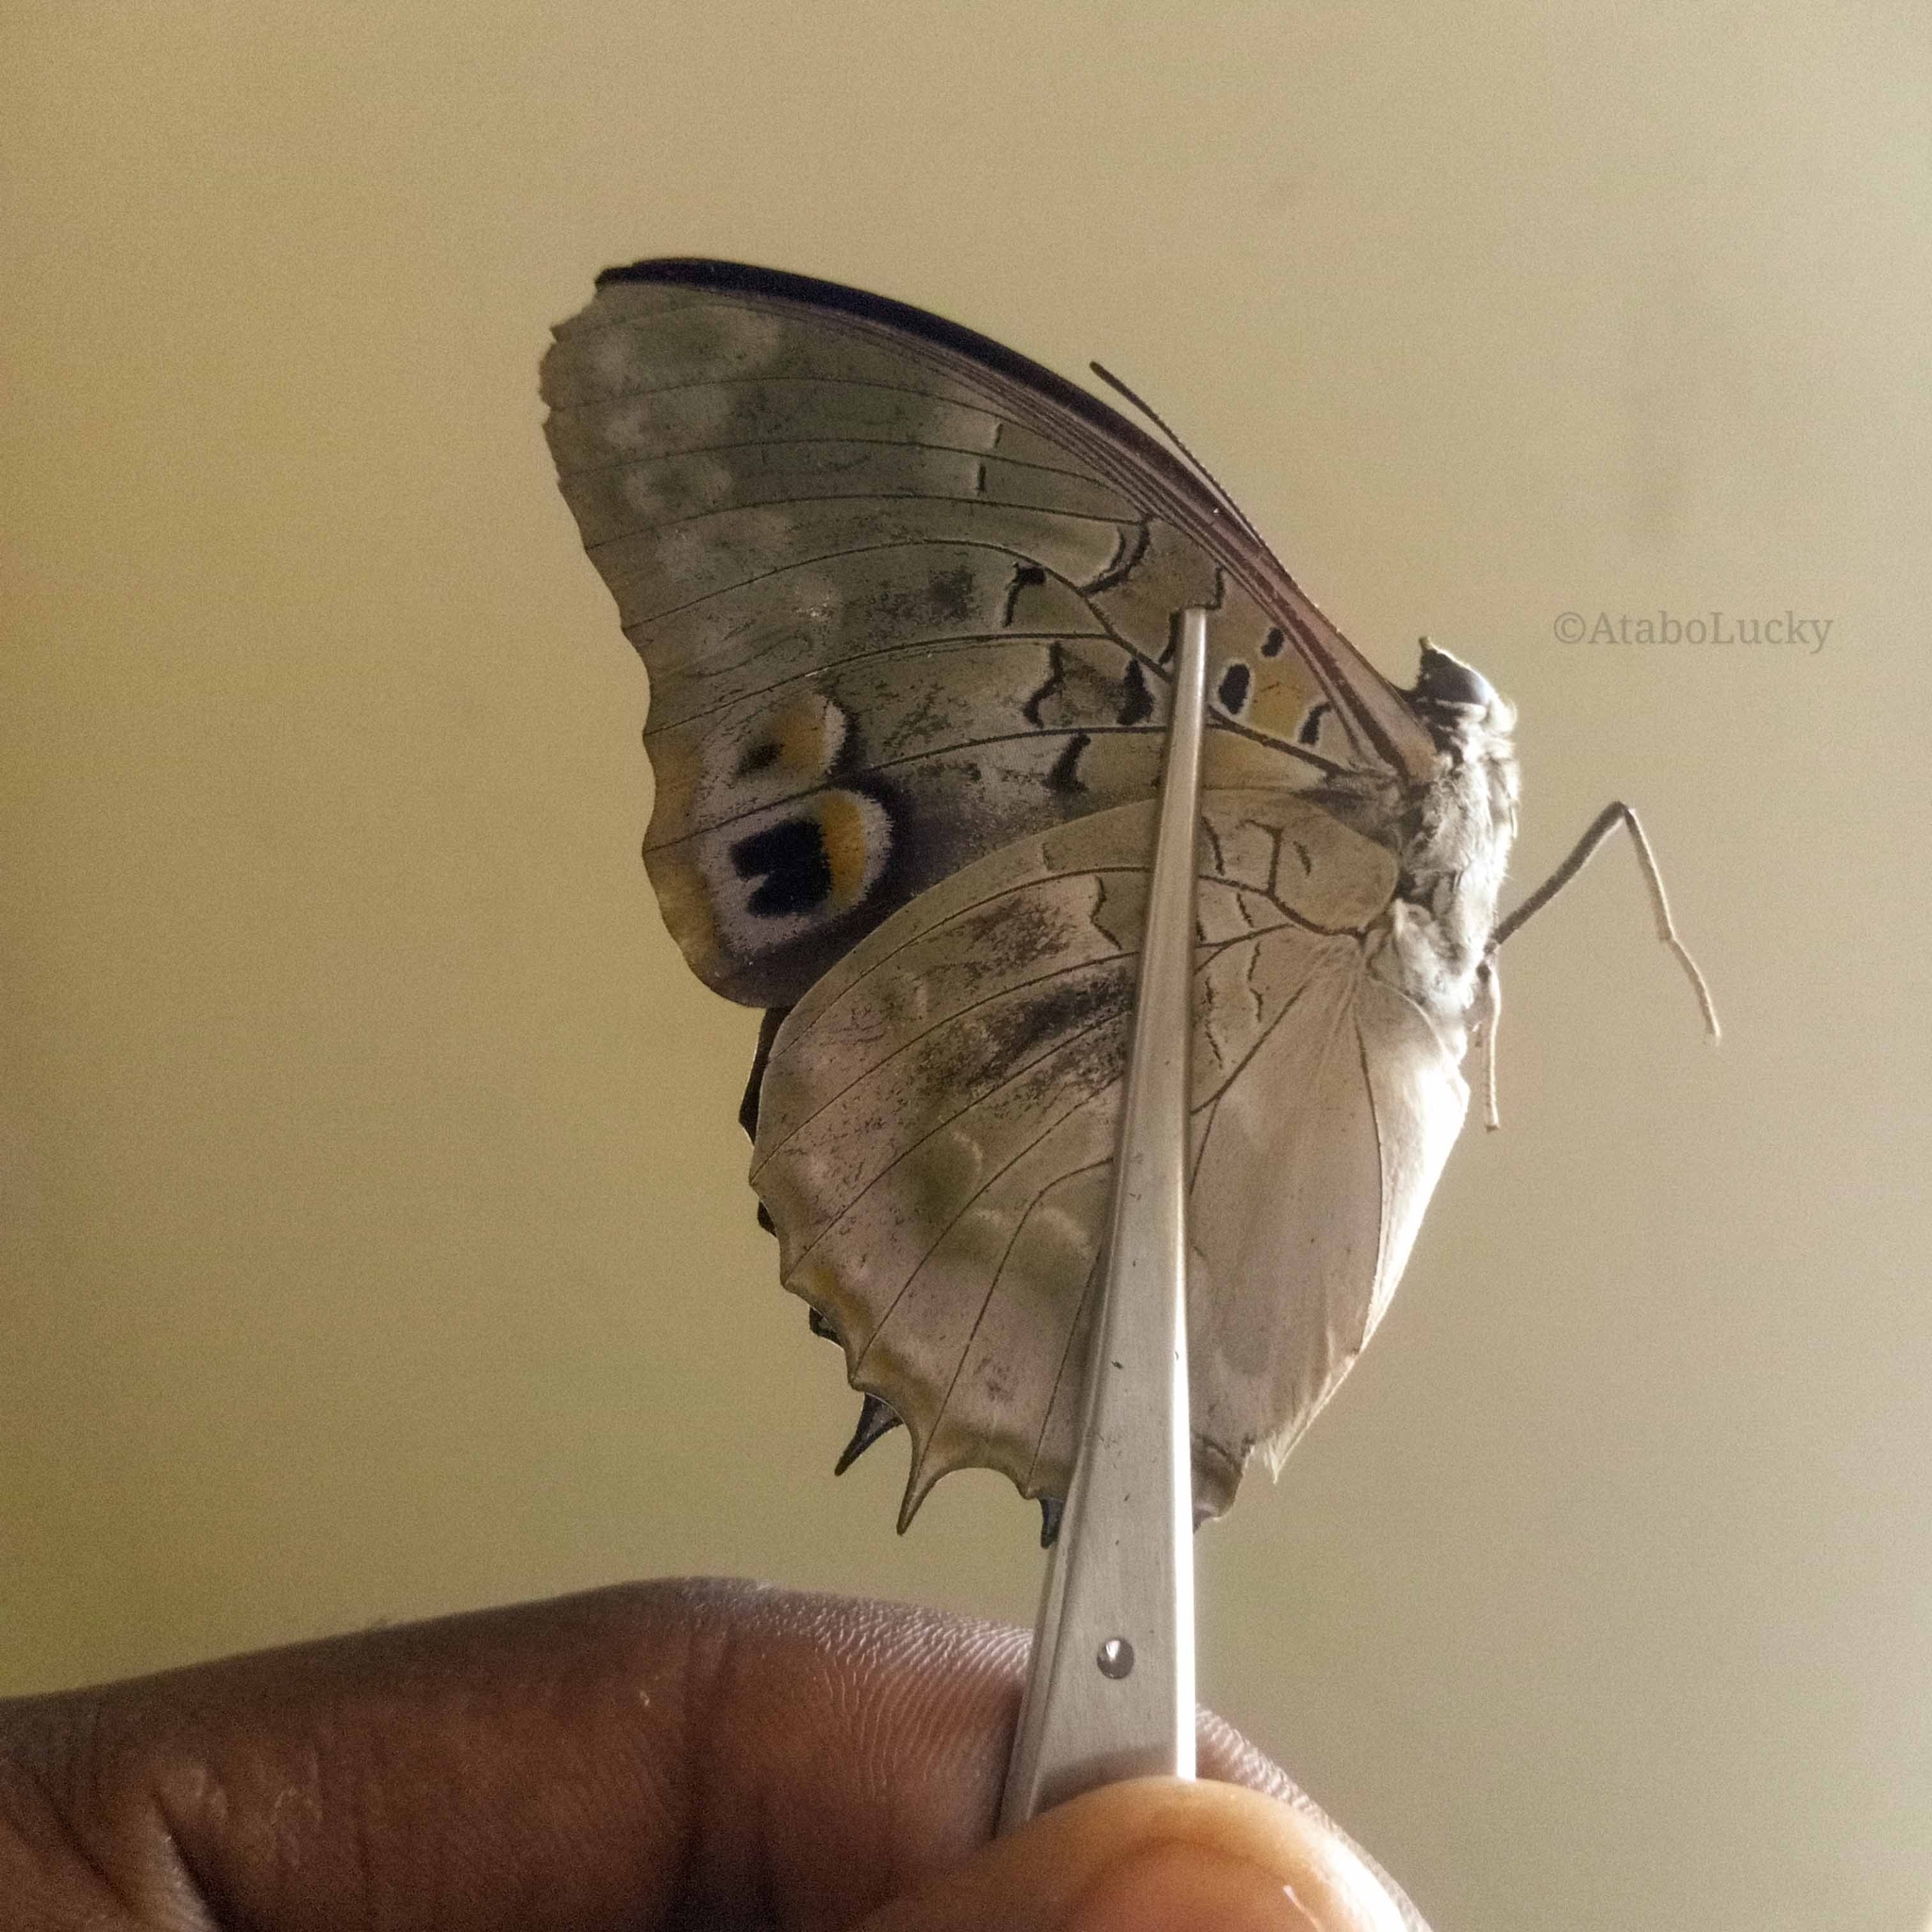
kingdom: Animalia
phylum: Arthropoda
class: Insecta
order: Lepidoptera
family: Nymphalidae
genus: Charaxes
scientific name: Charaxes ameliae
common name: Amelia’s blue-spotted charaxes
